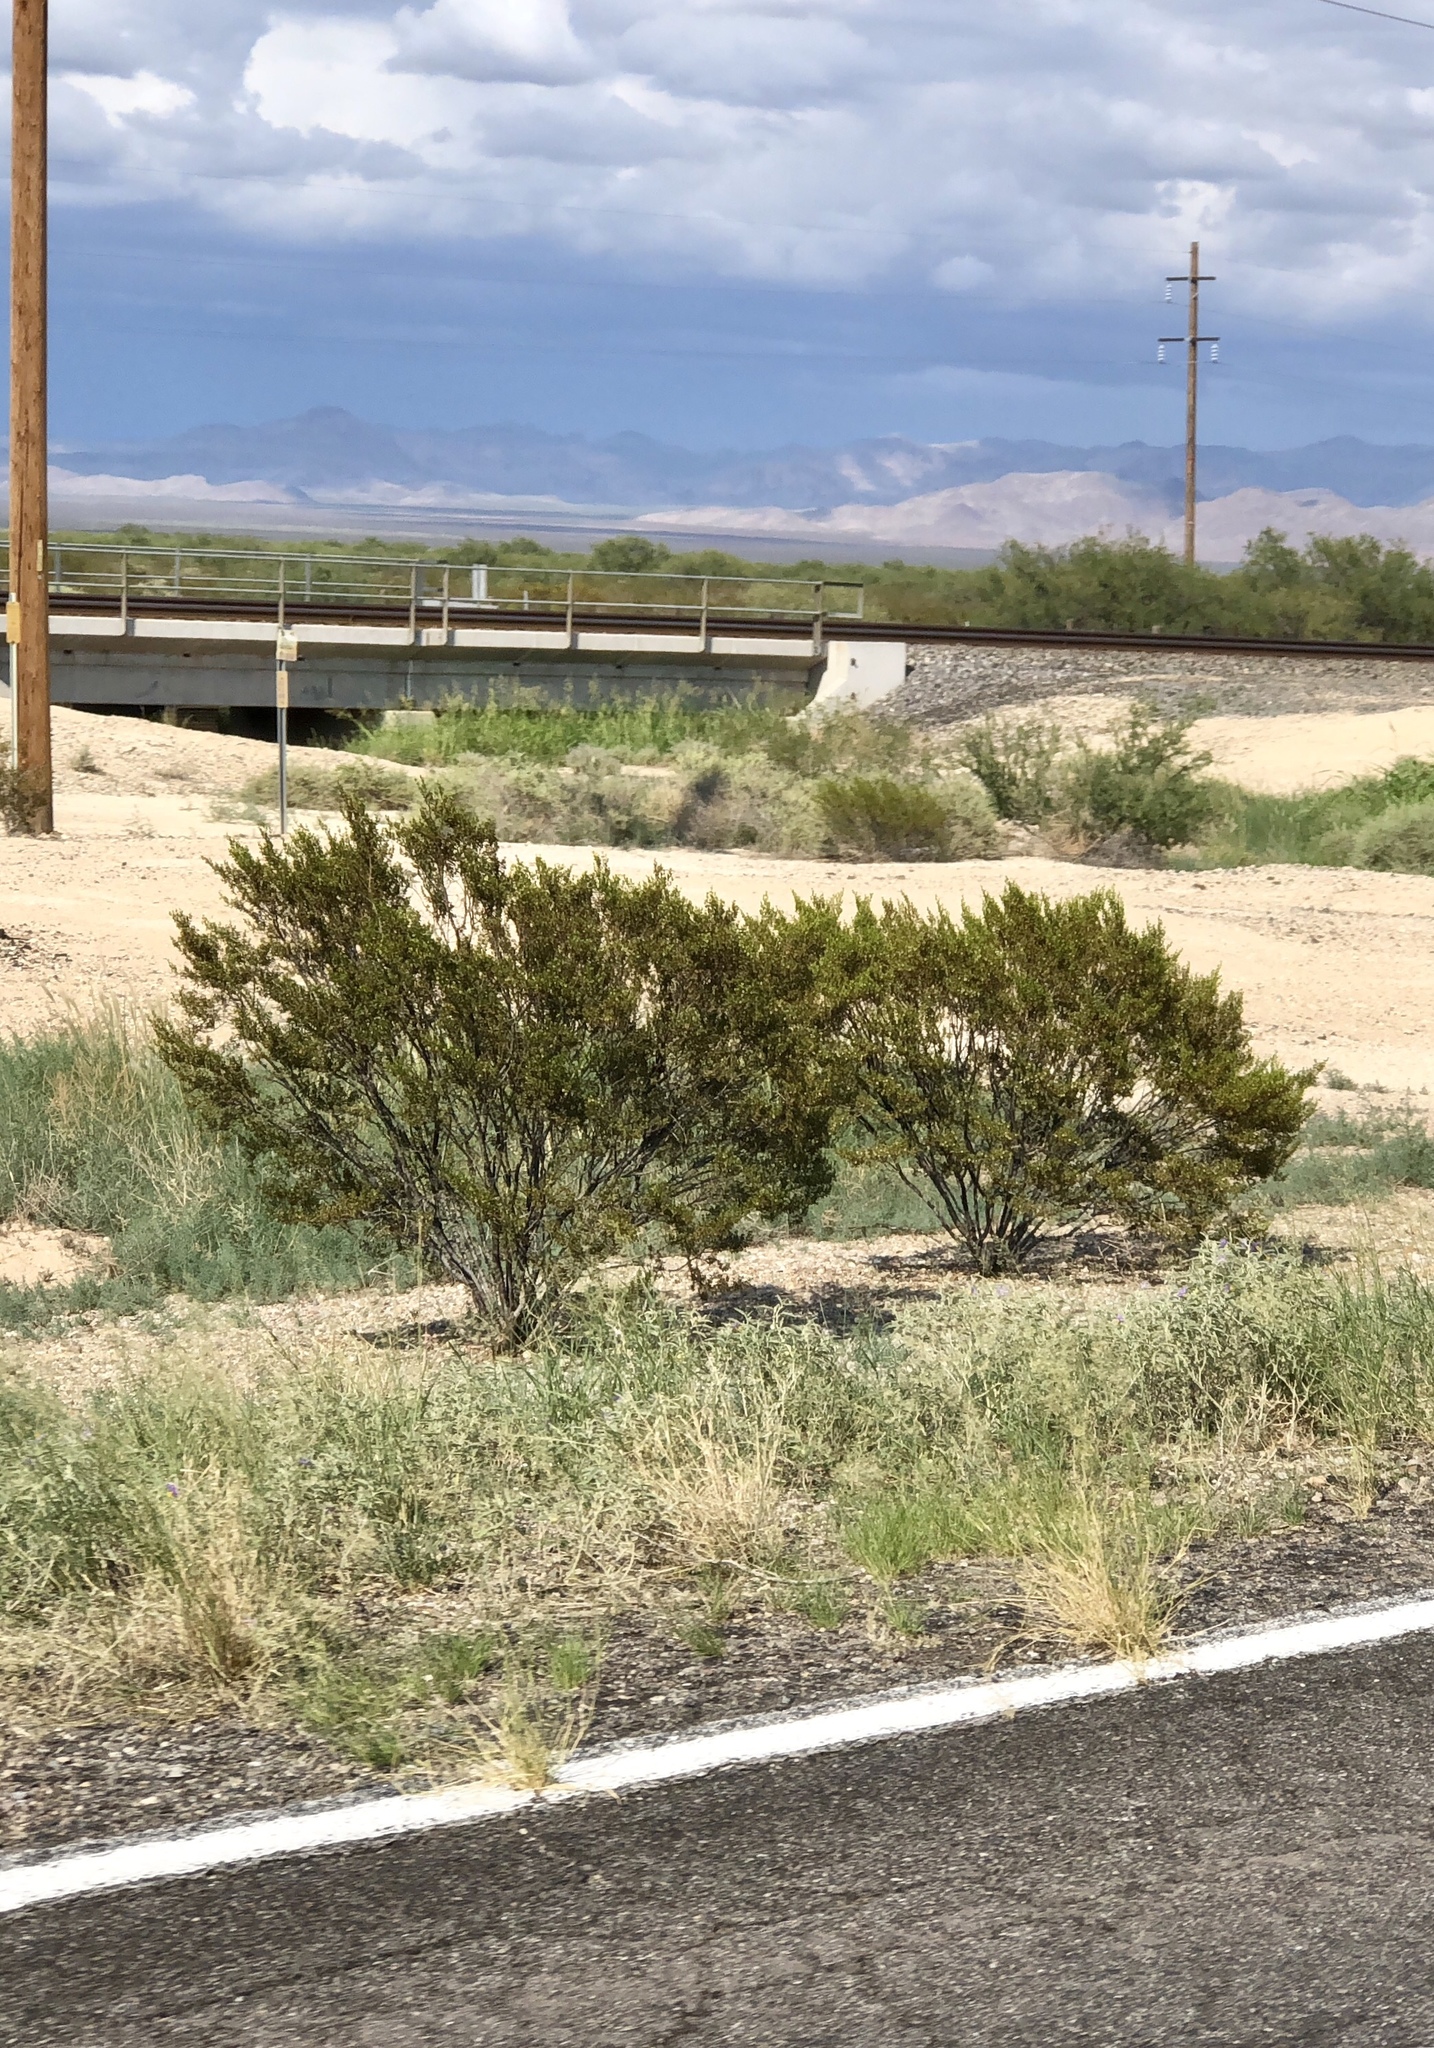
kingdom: Plantae
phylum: Tracheophyta
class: Magnoliopsida
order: Zygophyllales
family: Zygophyllaceae
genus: Larrea
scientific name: Larrea tridentata
